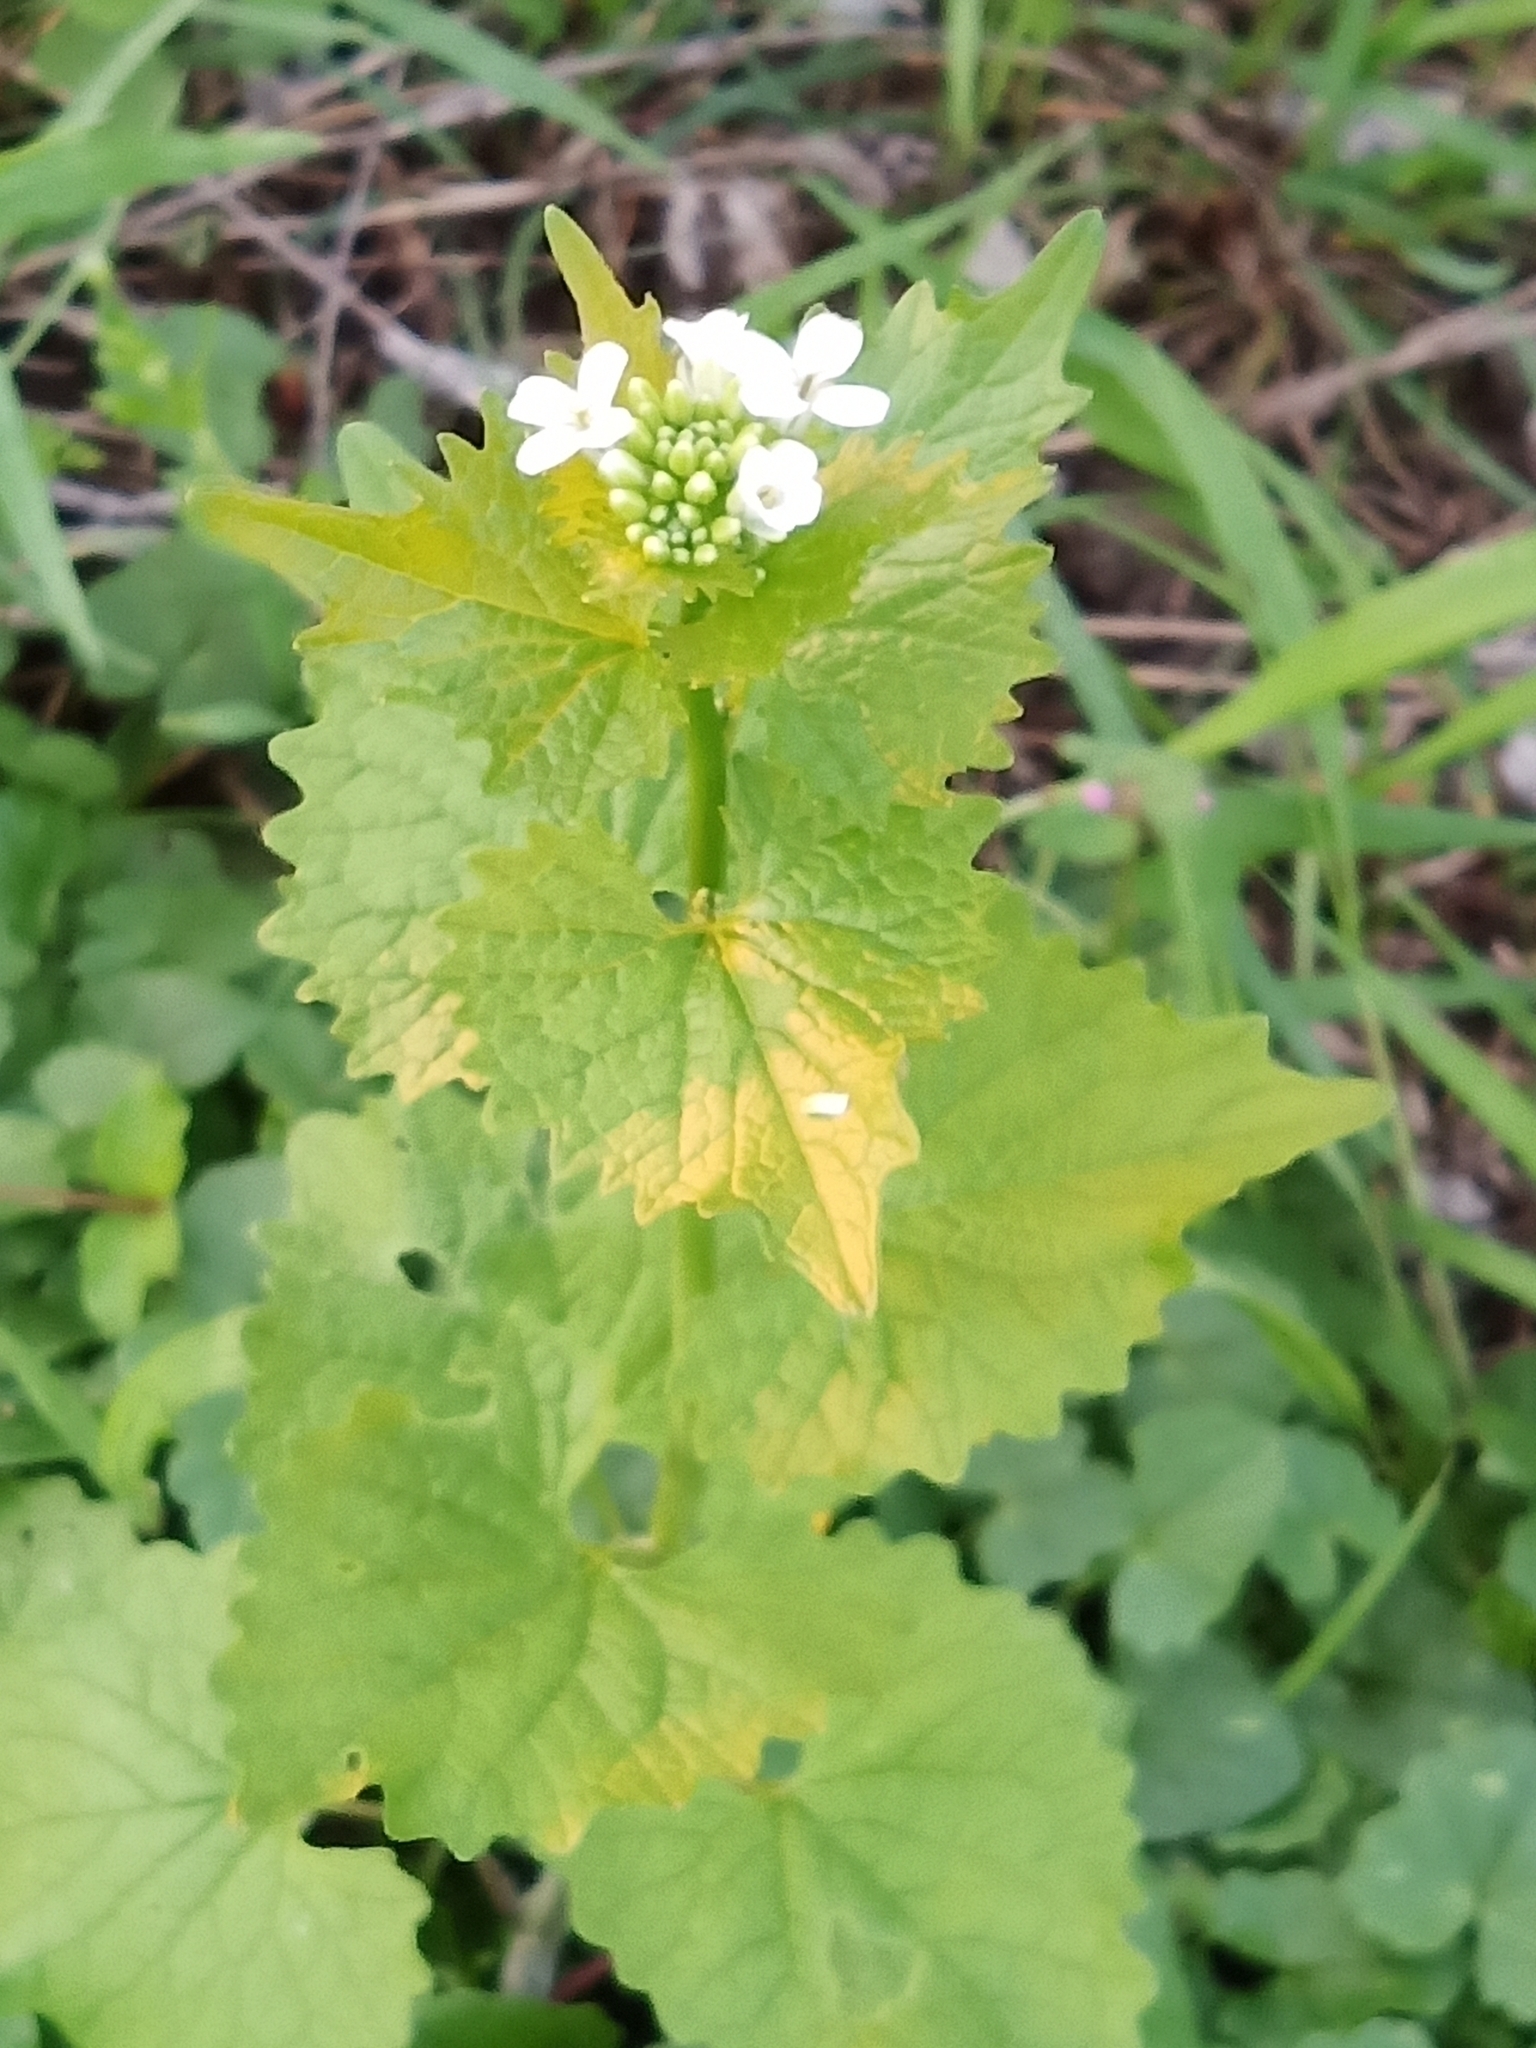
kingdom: Plantae
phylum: Tracheophyta
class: Magnoliopsida
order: Brassicales
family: Brassicaceae
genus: Alliaria
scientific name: Alliaria petiolata
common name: Garlic mustard
